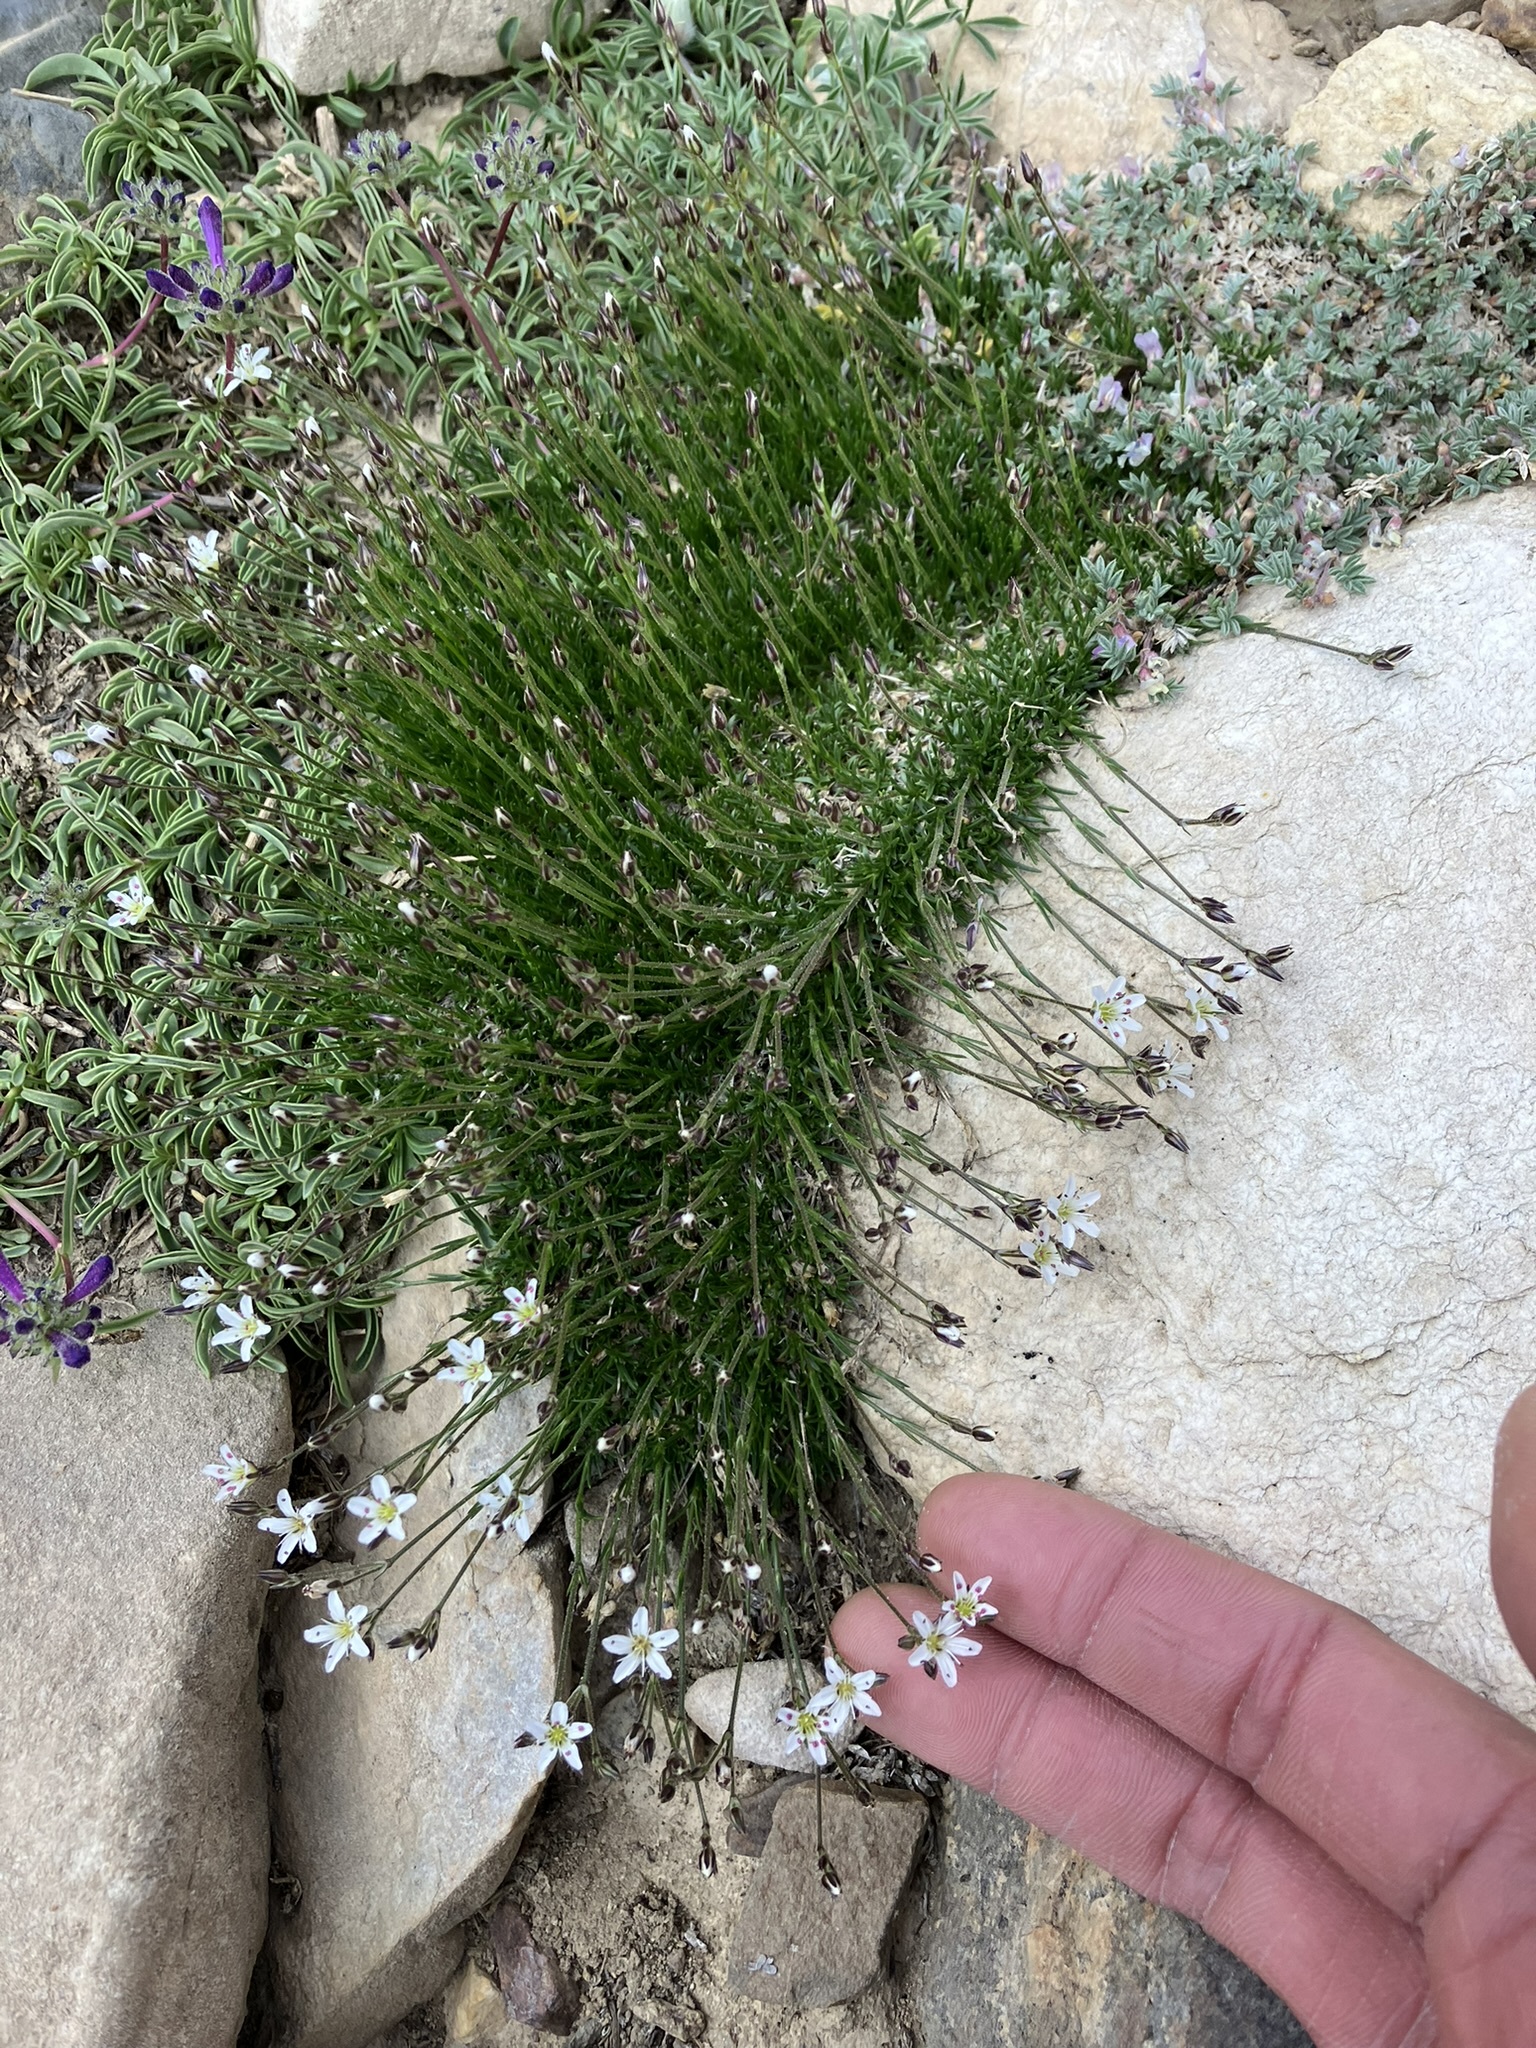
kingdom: Plantae
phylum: Tracheophyta
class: Magnoliopsida
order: Caryophyllales
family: Caryophyllaceae
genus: Eremogone
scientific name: Eremogone kingii
